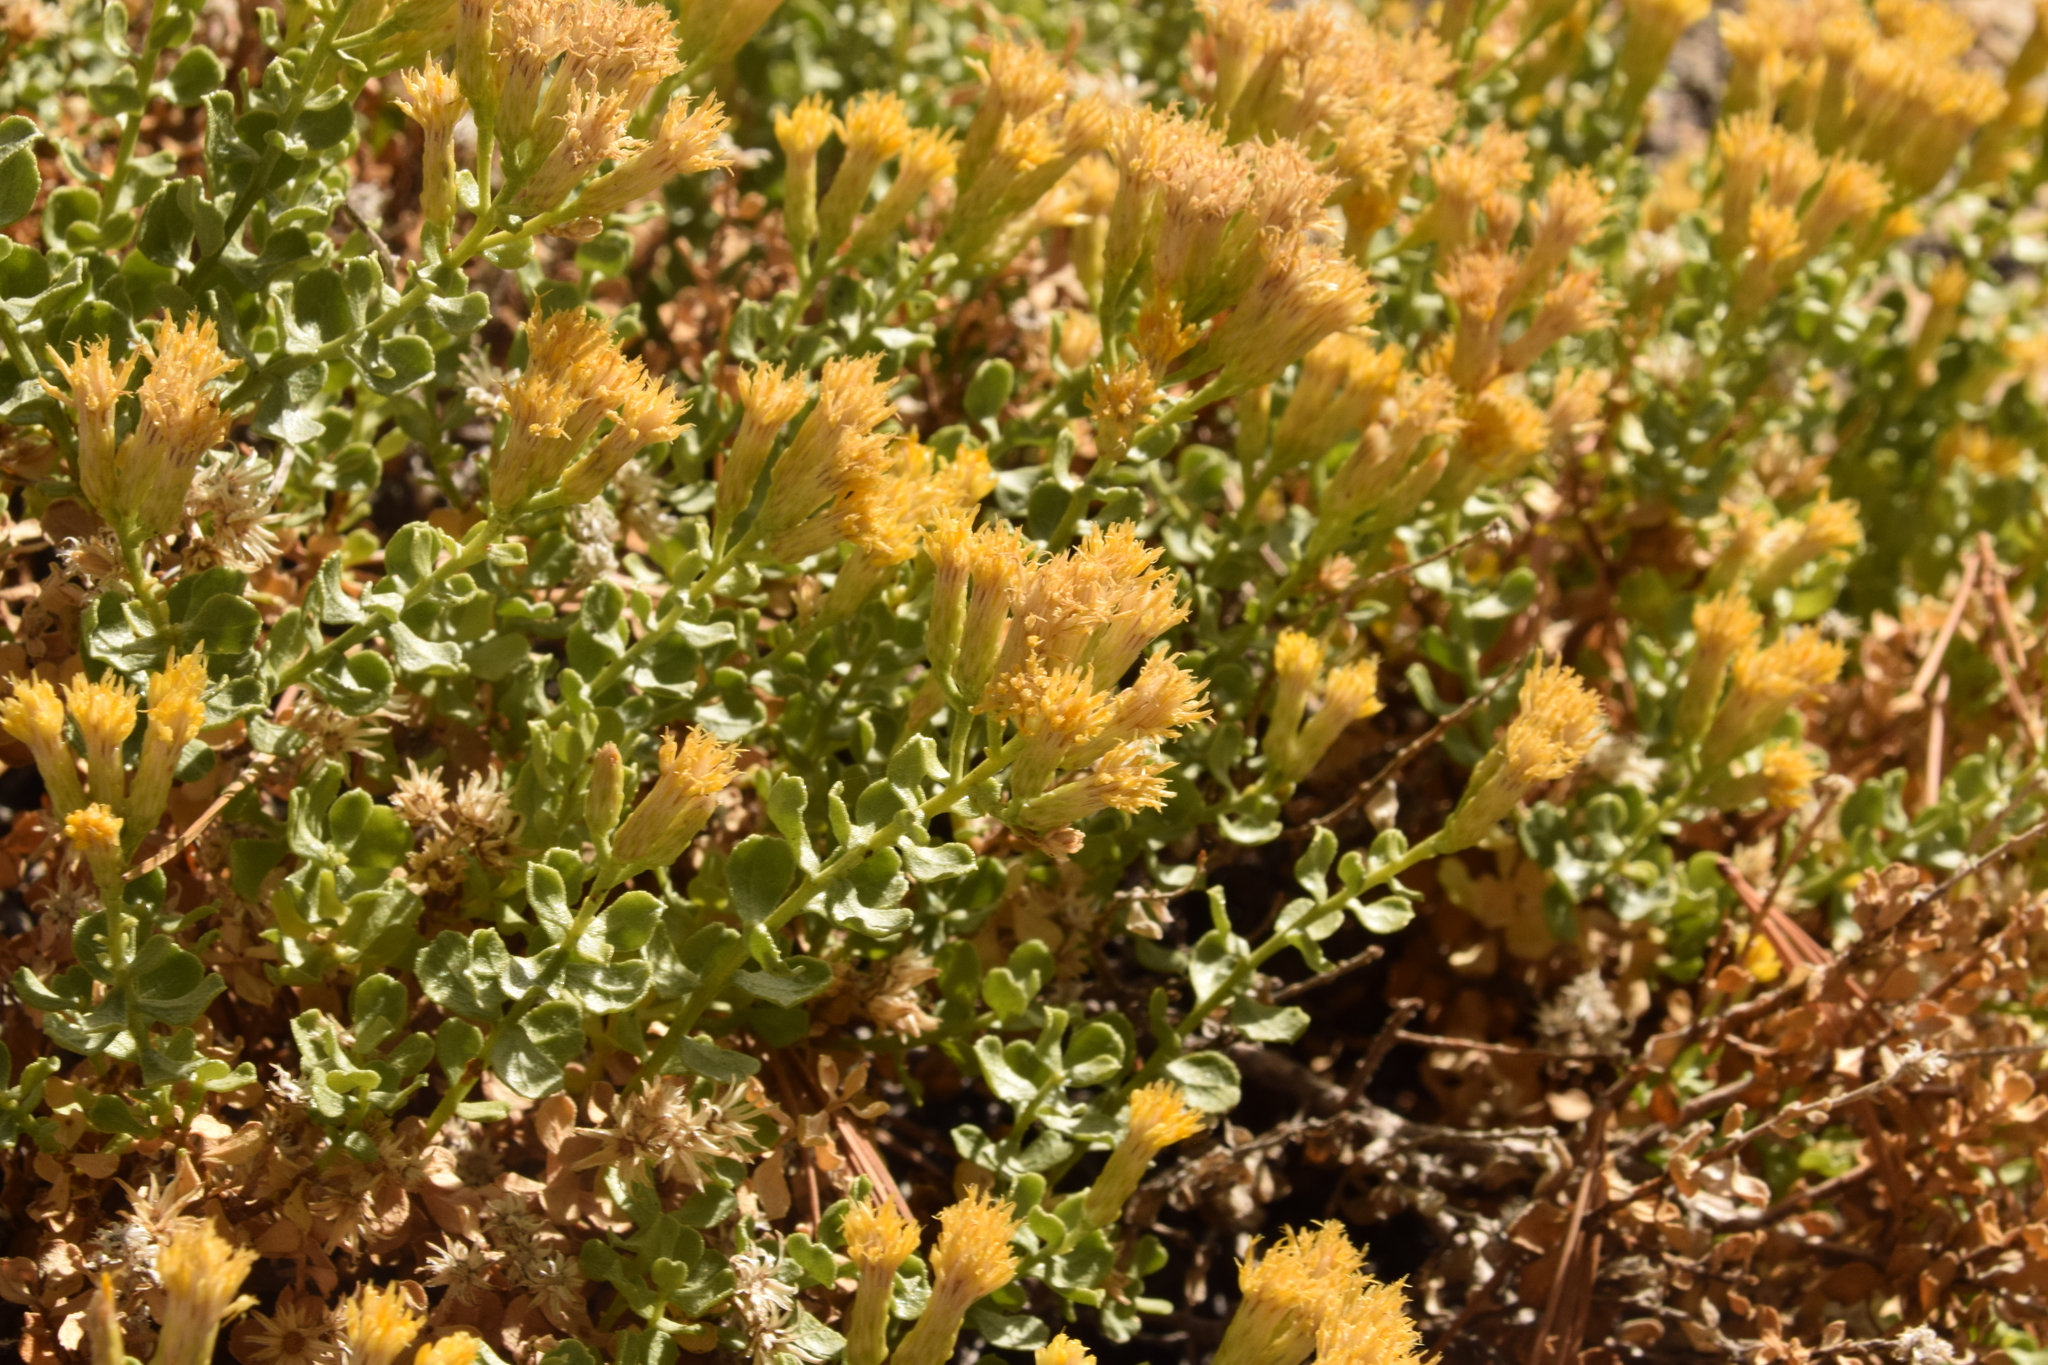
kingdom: Plantae
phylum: Tracheophyta
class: Magnoliopsida
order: Asterales
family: Asteraceae
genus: Ericameria
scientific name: Ericameria cuneata
